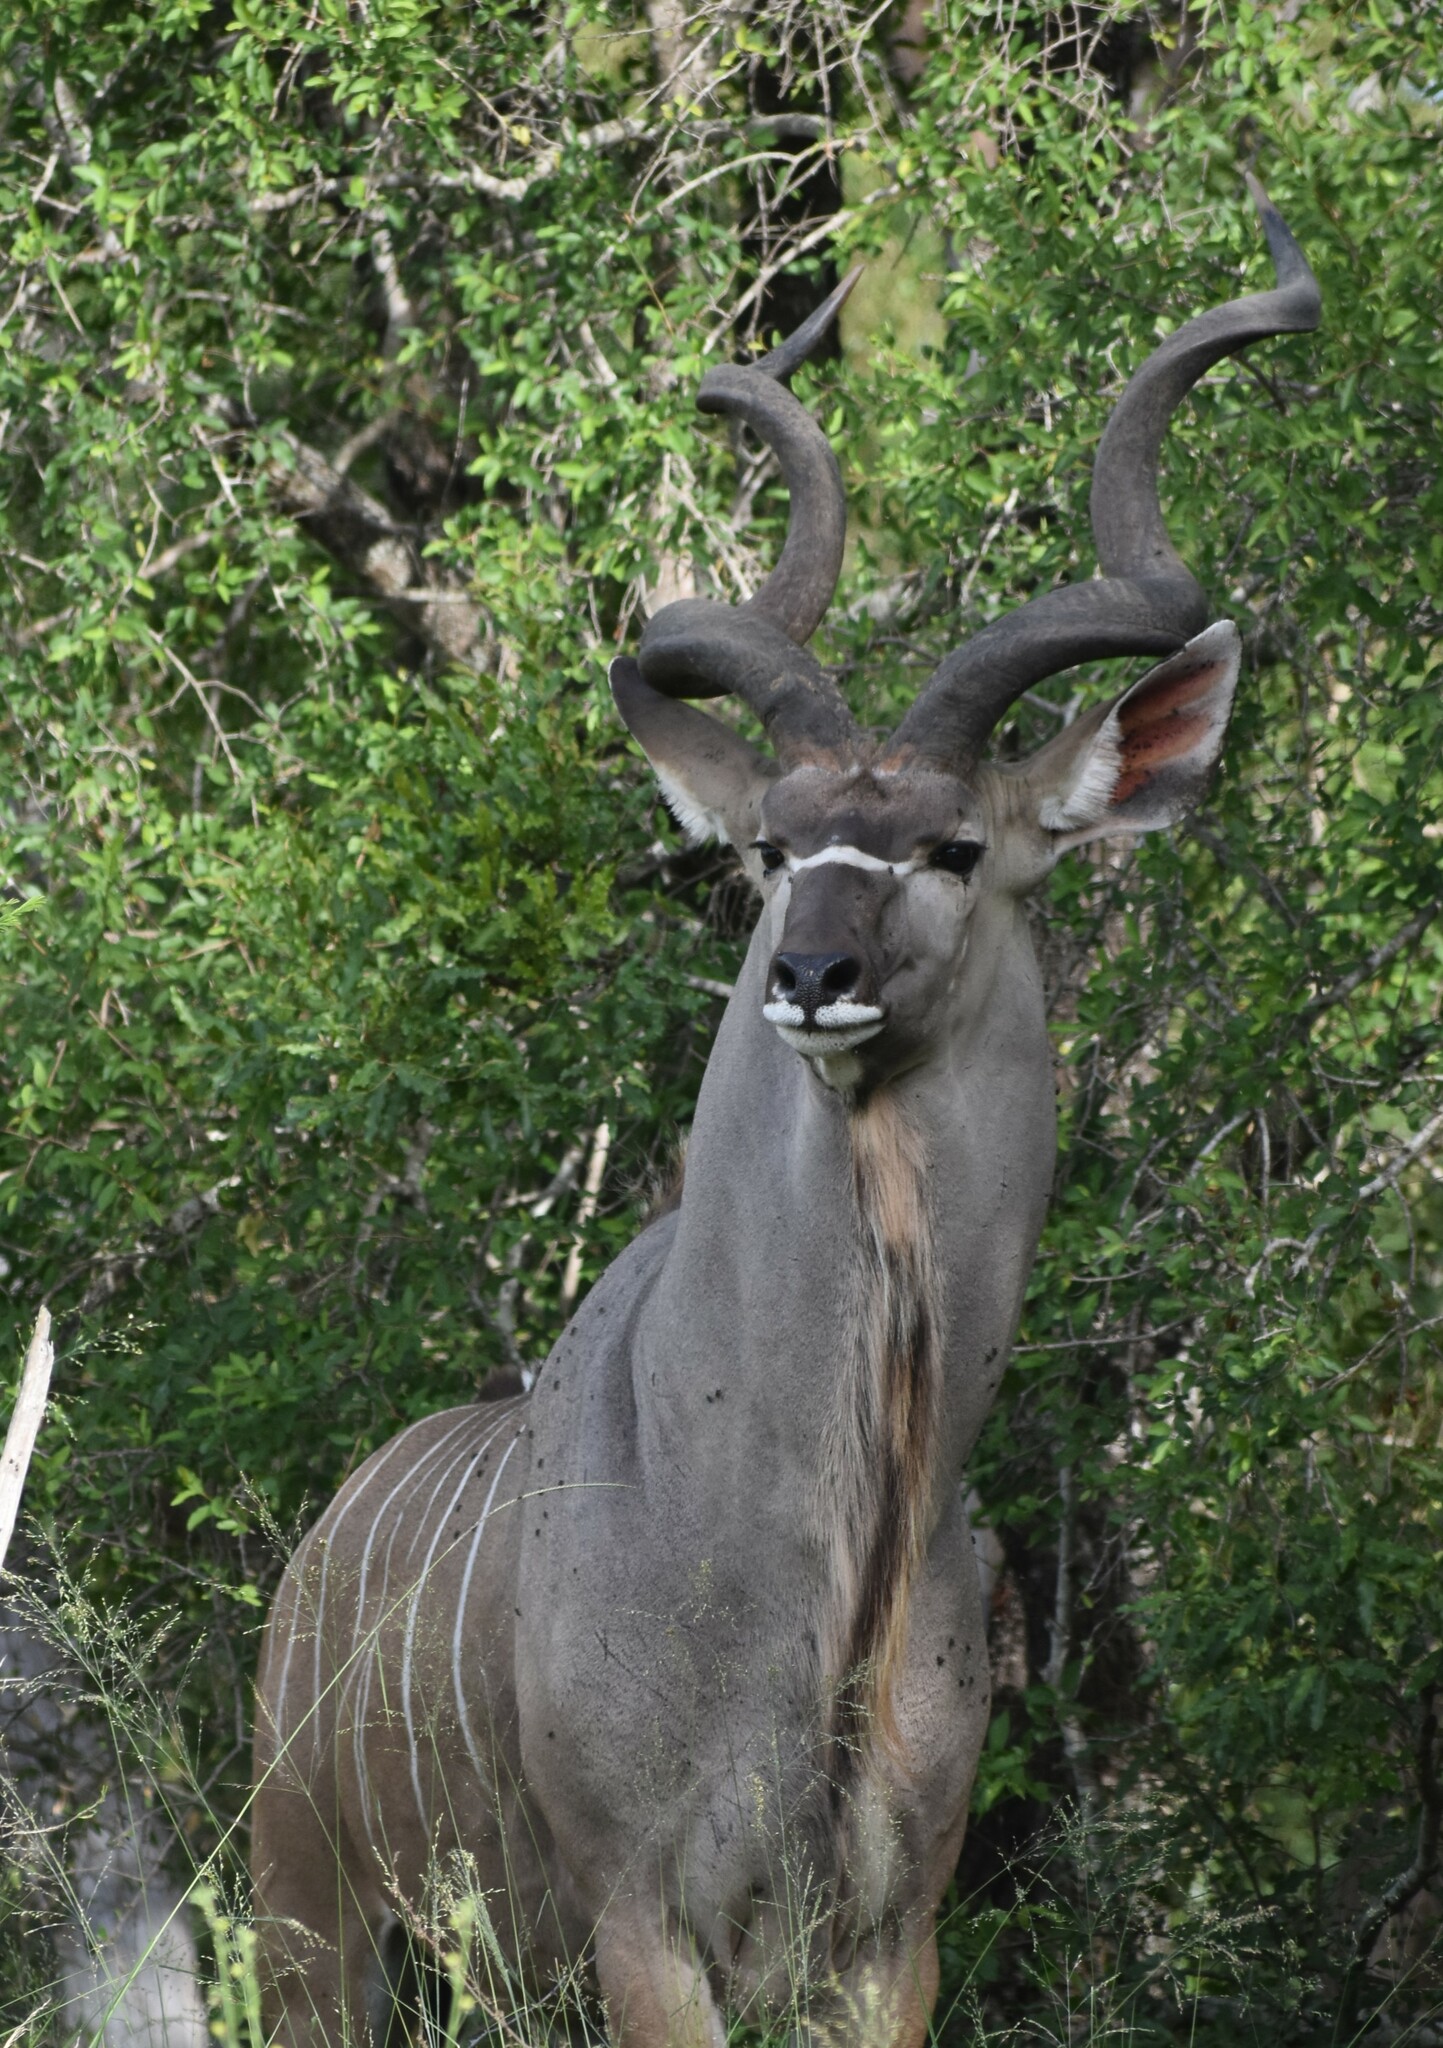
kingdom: Animalia
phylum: Chordata
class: Mammalia
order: Artiodactyla
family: Bovidae
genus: Tragelaphus
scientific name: Tragelaphus strepsiceros
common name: Greater kudu
